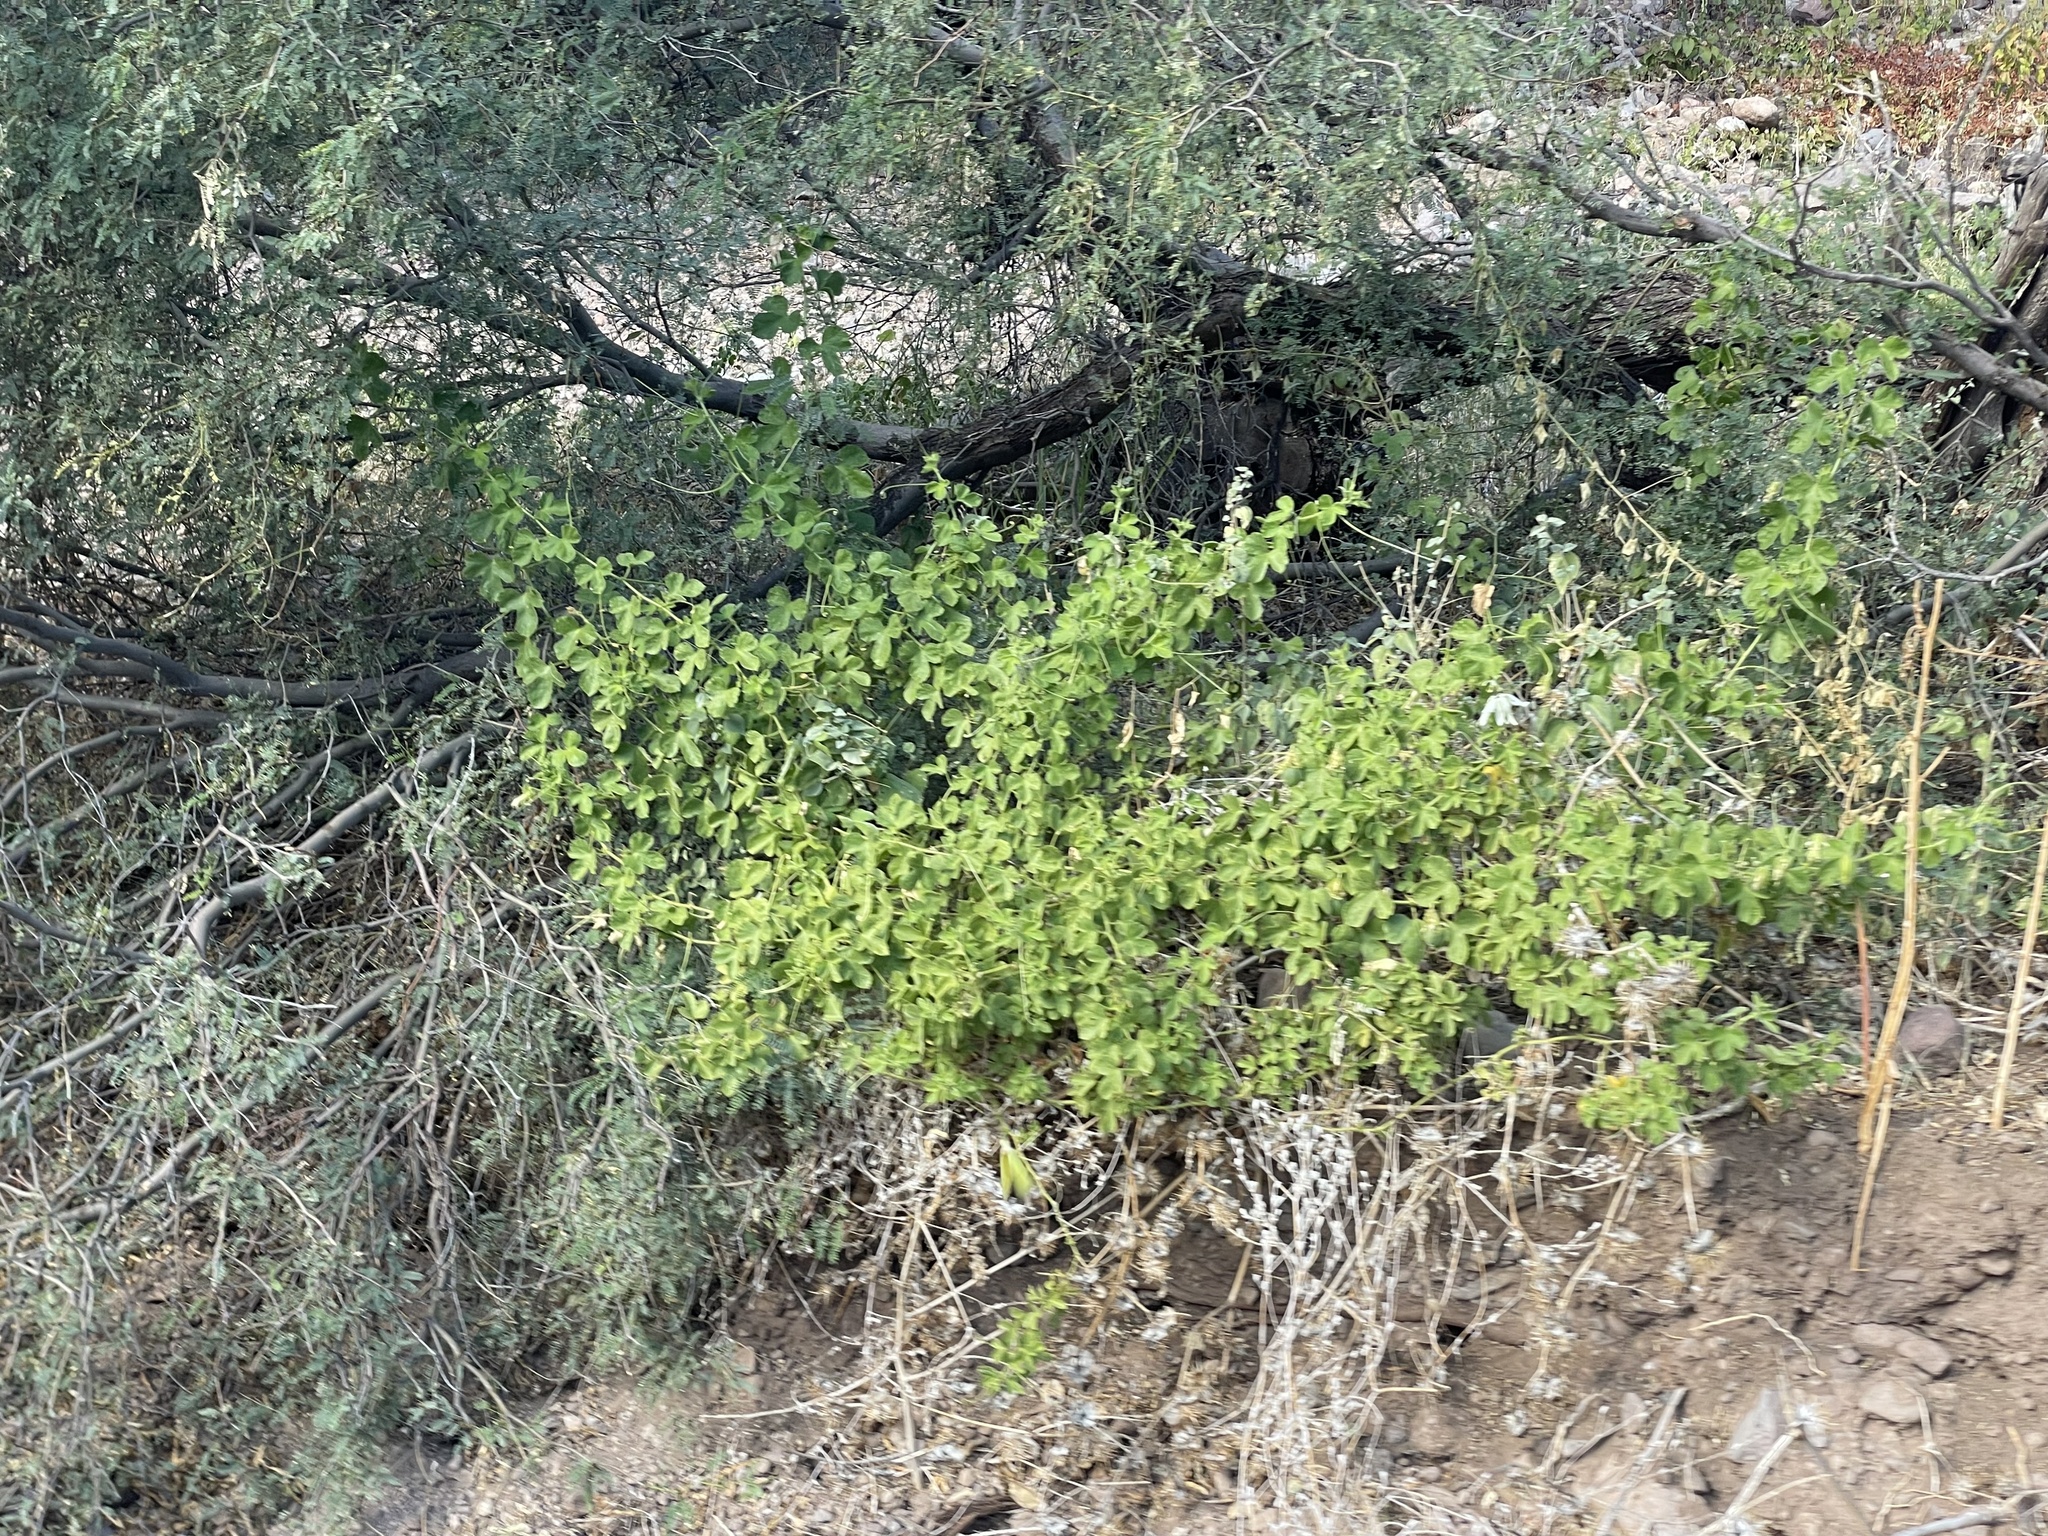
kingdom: Plantae
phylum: Tracheophyta
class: Magnoliopsida
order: Malpighiales
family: Passifloraceae
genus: Passiflora
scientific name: Passiflora palmeri
